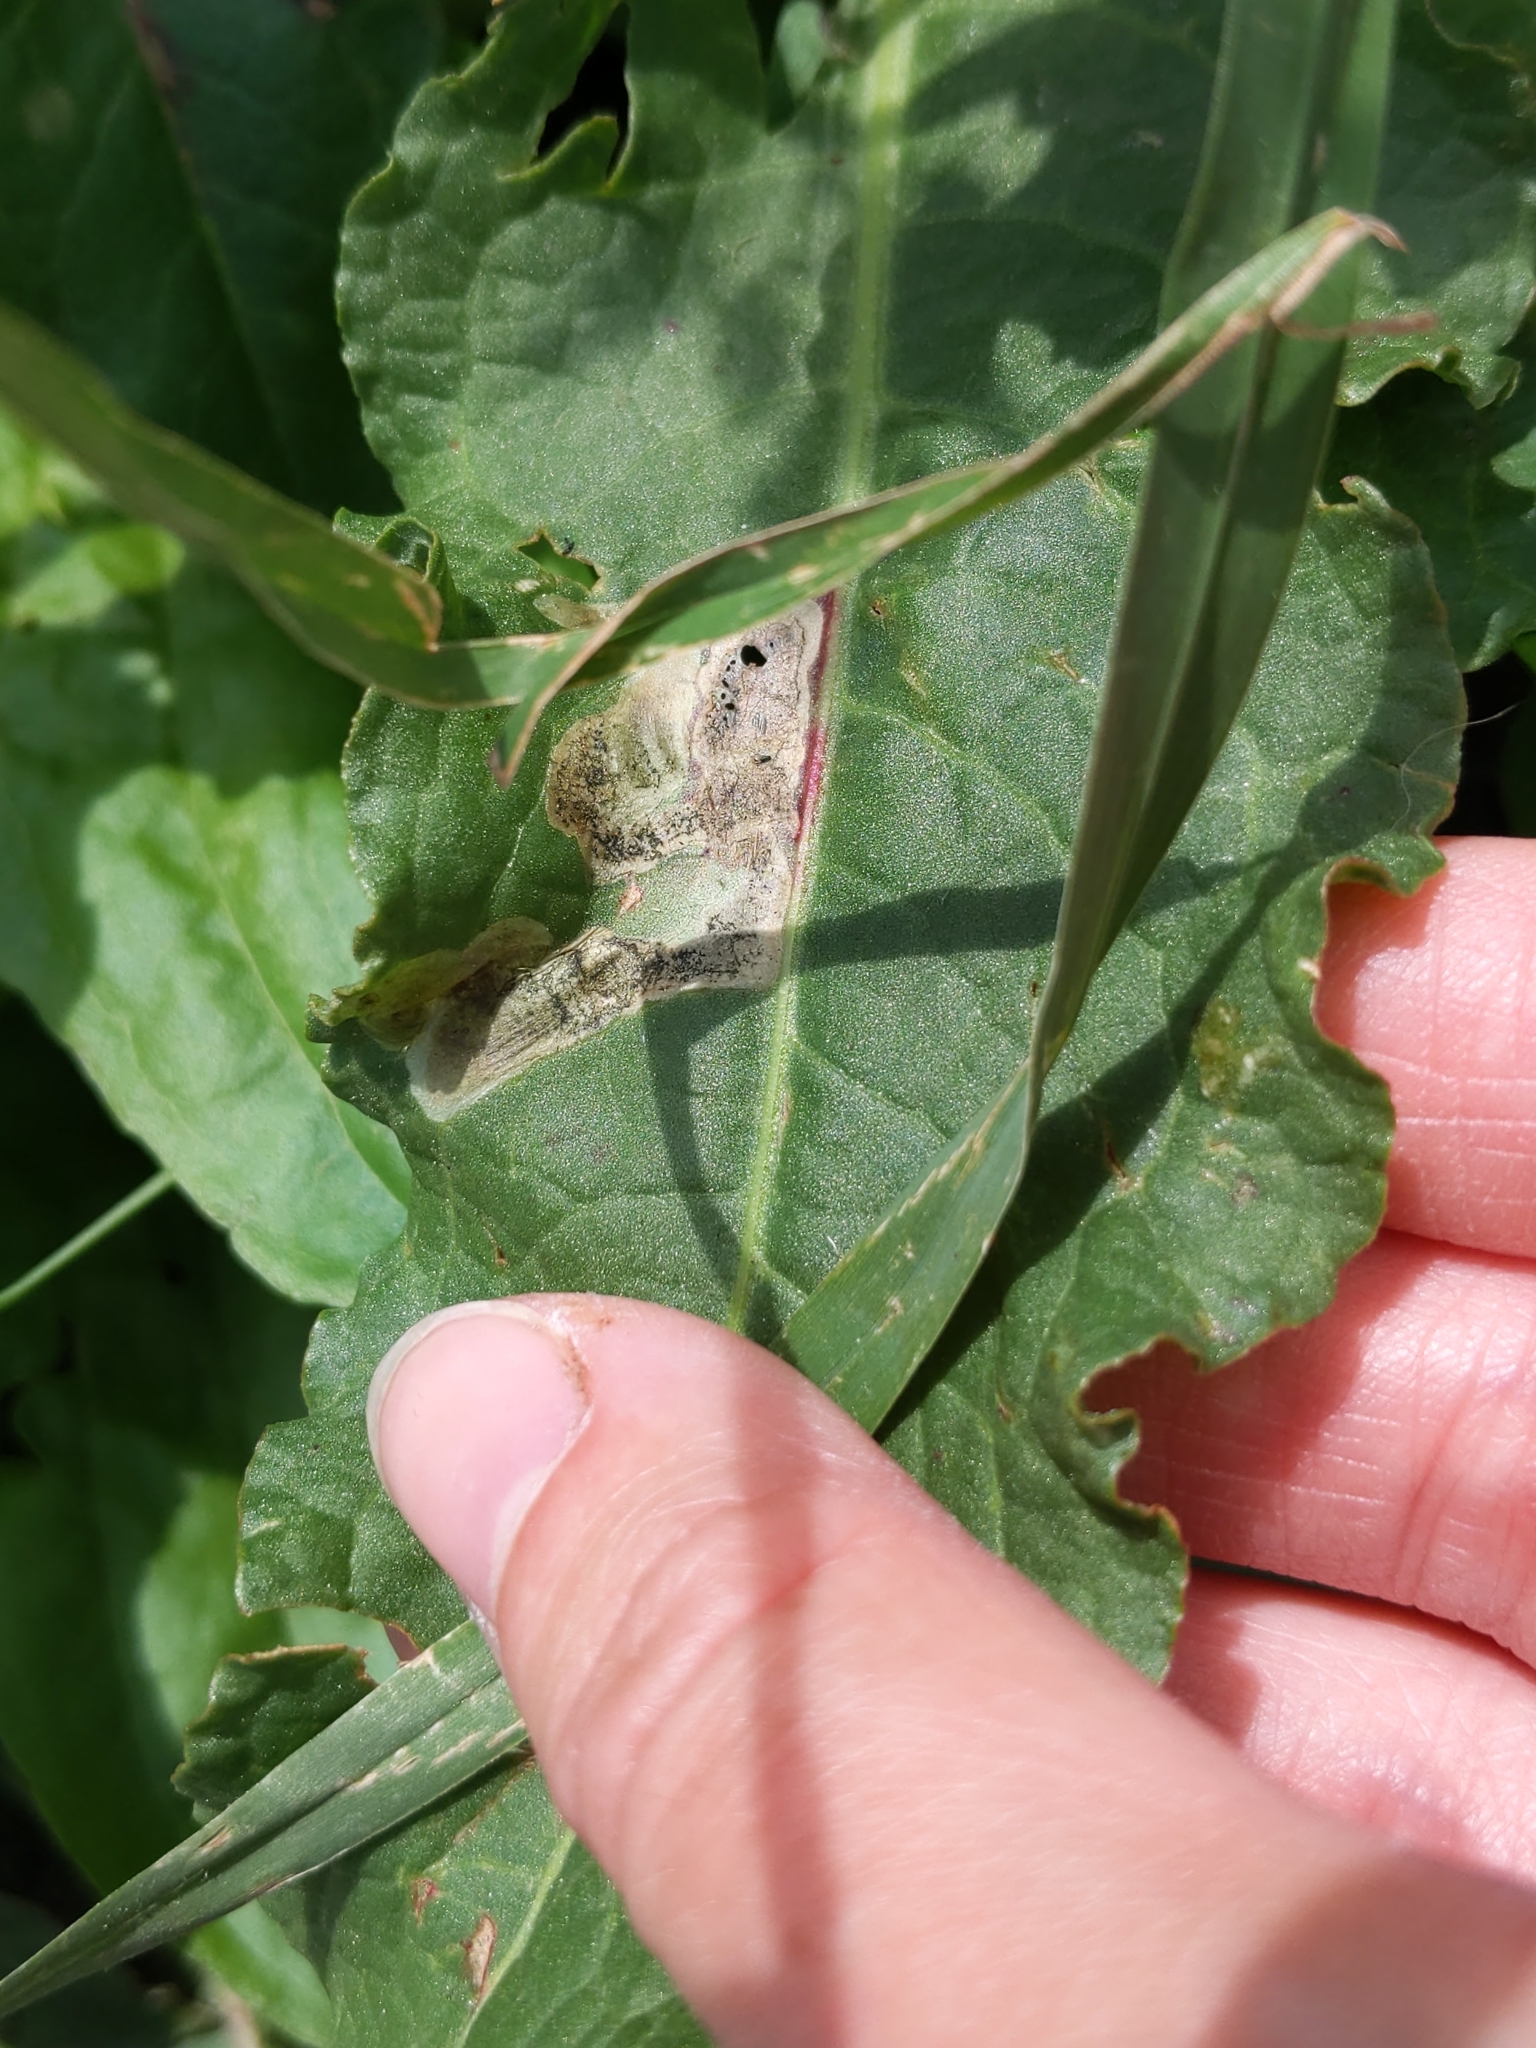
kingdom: Animalia
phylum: Arthropoda
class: Insecta
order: Diptera
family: Anthomyiidae
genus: Pegomya
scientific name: Pegomya bicolor
